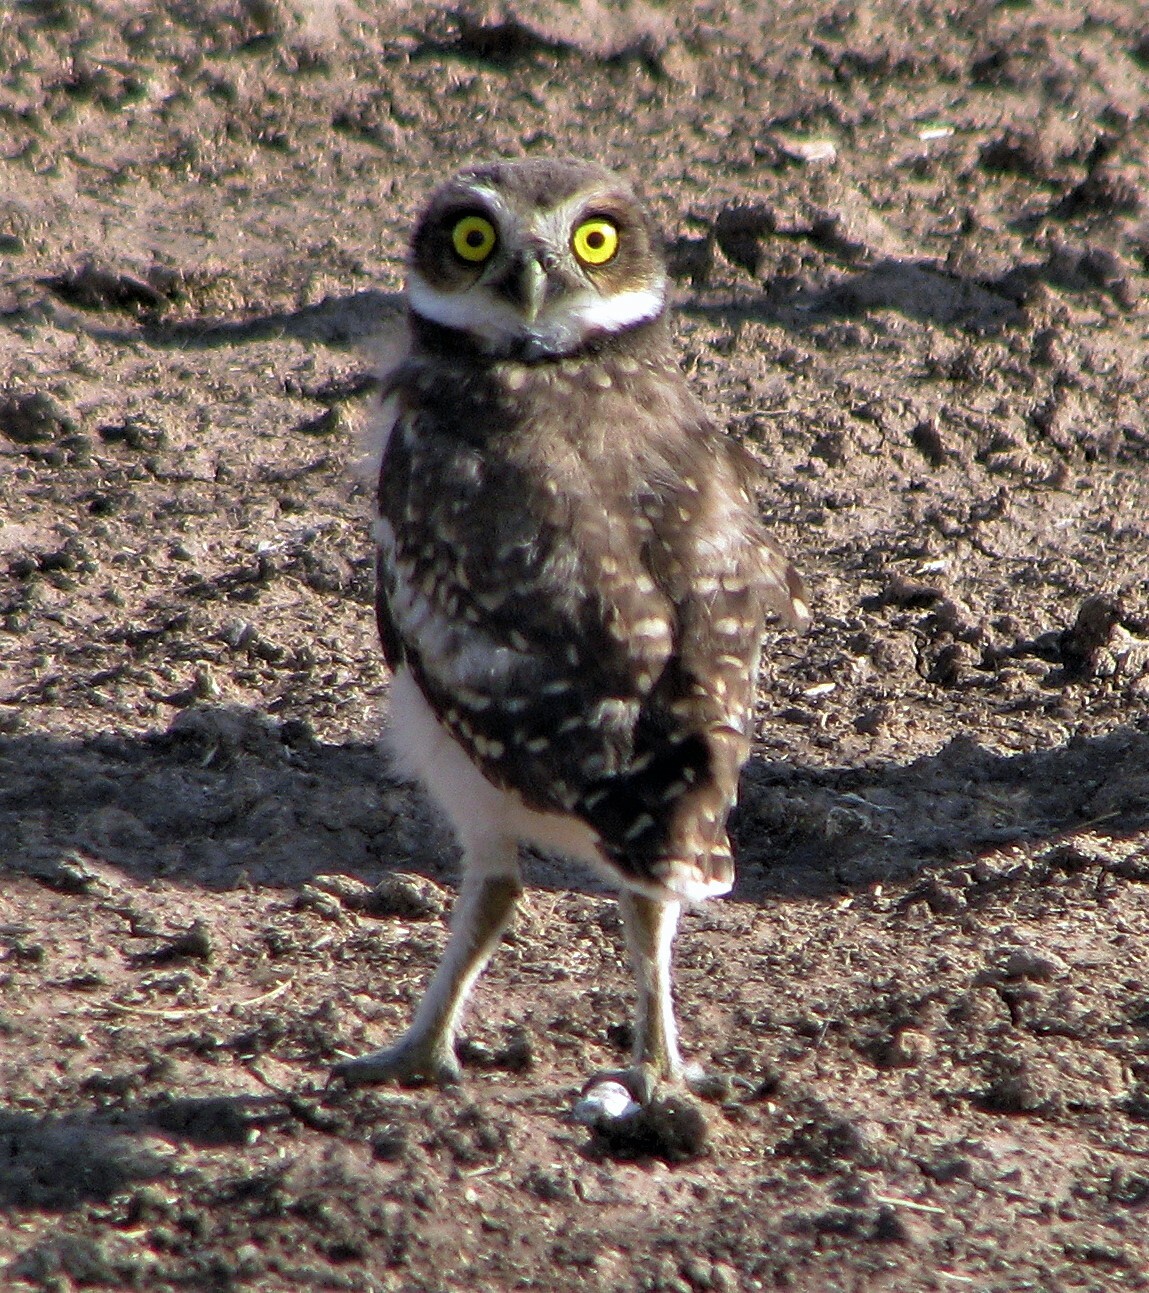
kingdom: Animalia
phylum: Chordata
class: Aves
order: Strigiformes
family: Strigidae
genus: Athene
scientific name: Athene cunicularia
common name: Burrowing owl
